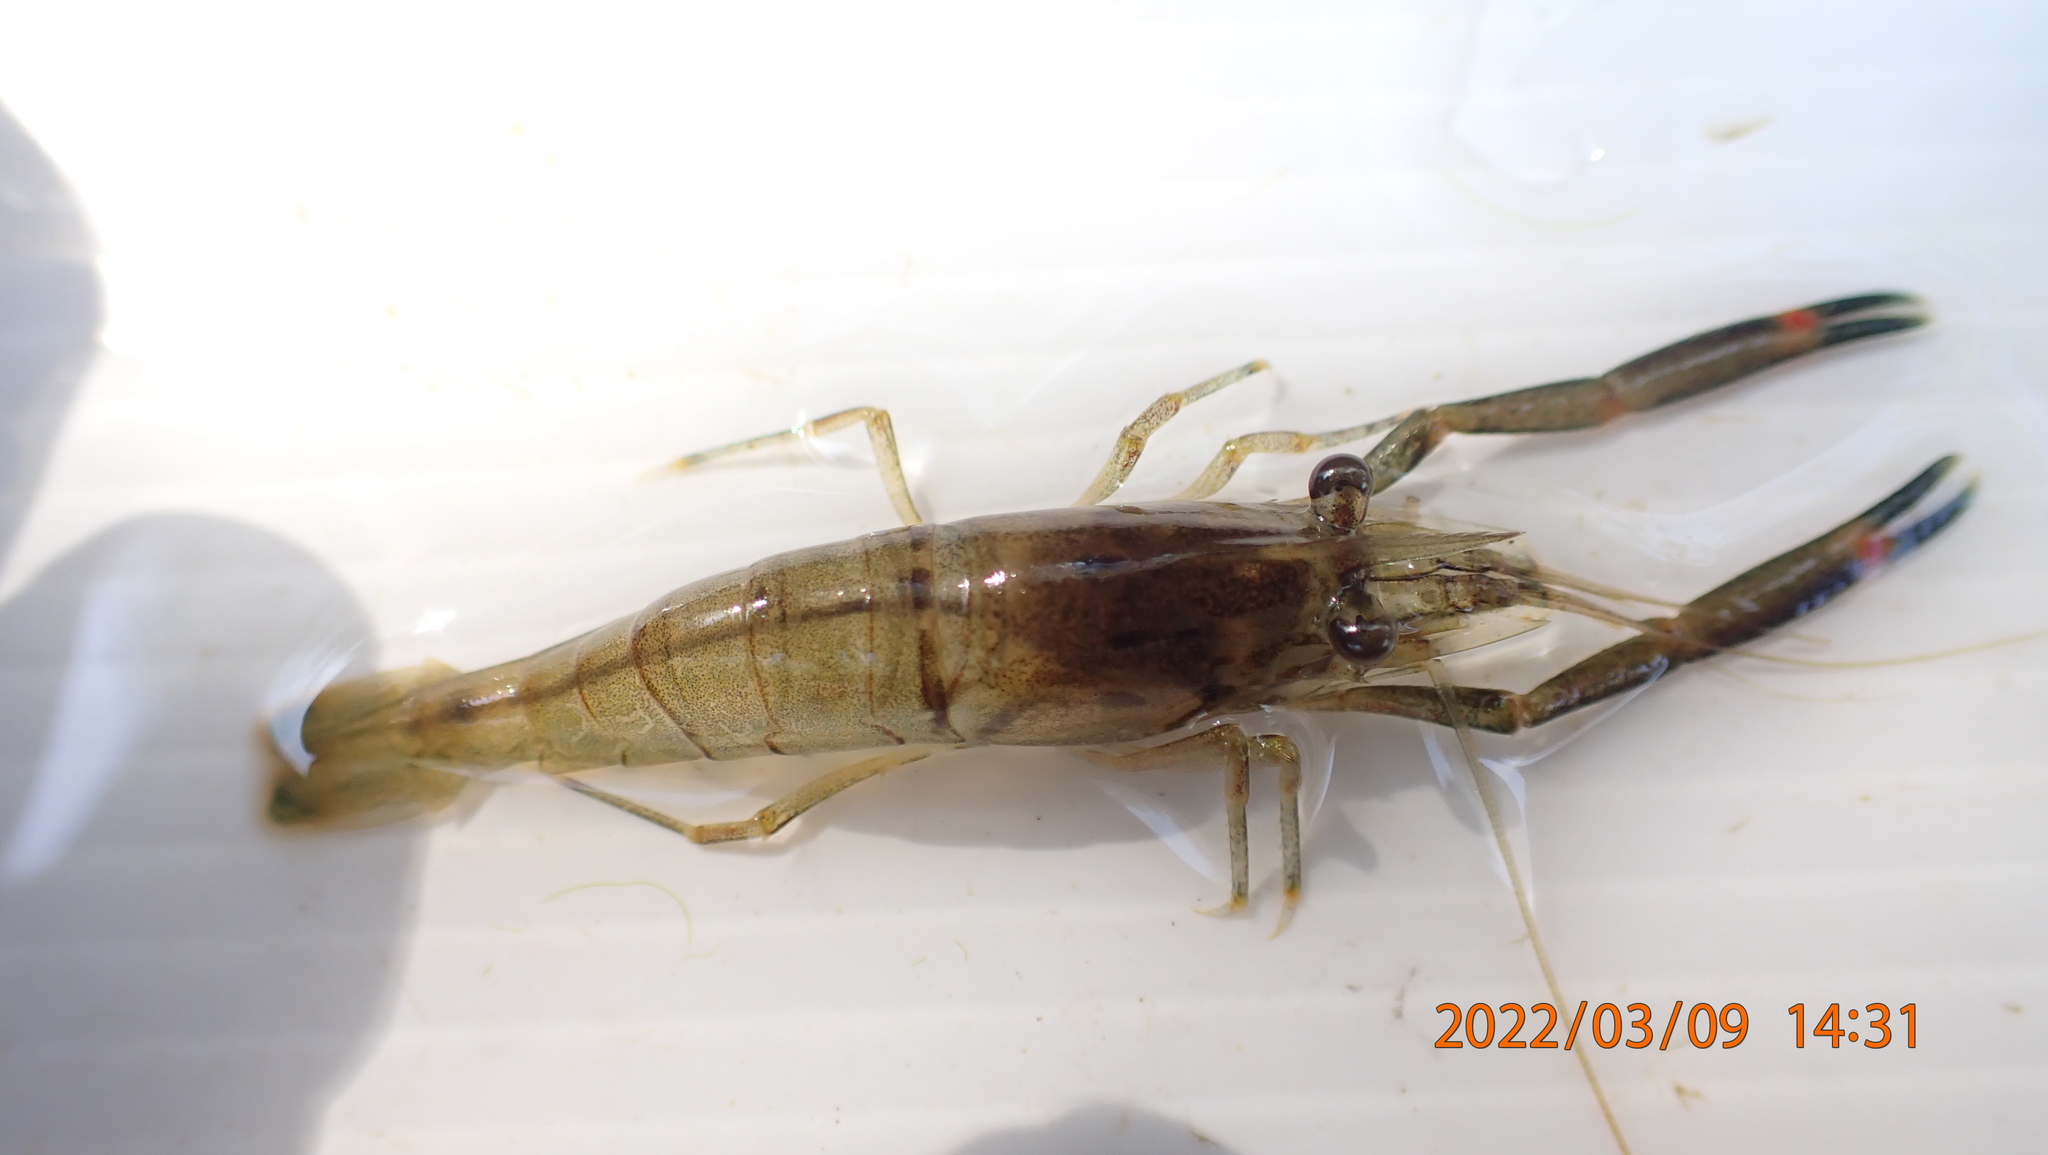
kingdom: Animalia
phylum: Arthropoda
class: Malacostraca
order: Decapoda
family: Palaemonidae
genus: Macrobrachium
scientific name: Macrobrachium asperulum
